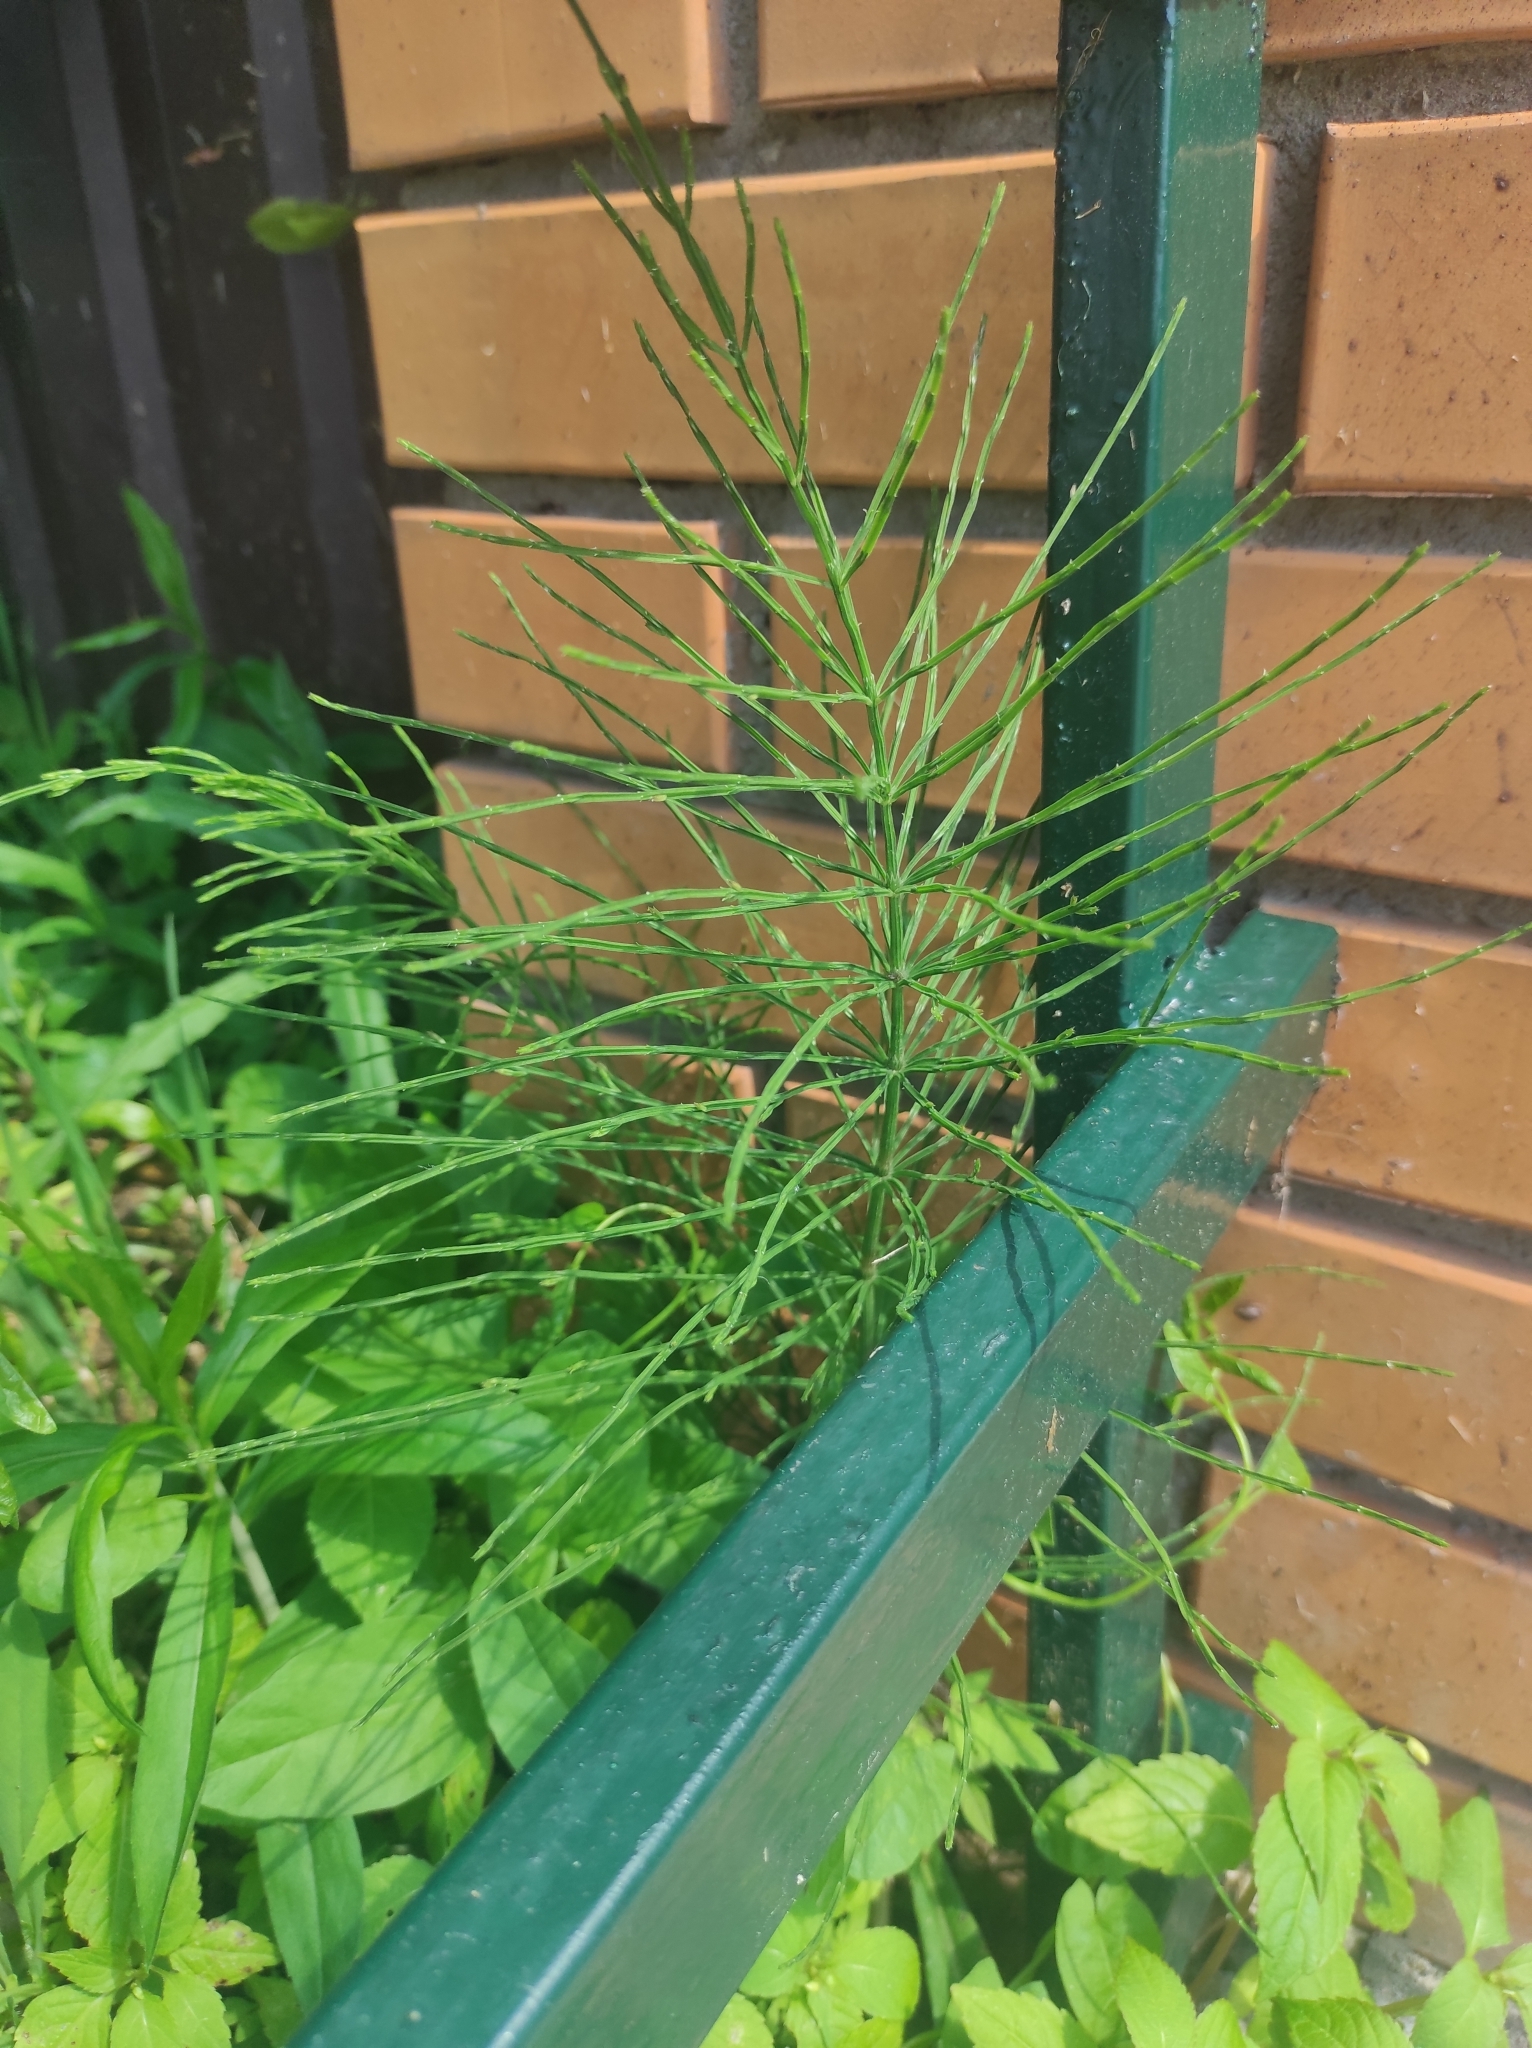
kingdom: Plantae
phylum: Tracheophyta
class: Polypodiopsida
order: Equisetales
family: Equisetaceae
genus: Equisetum
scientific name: Equisetum arvense
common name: Field horsetail
